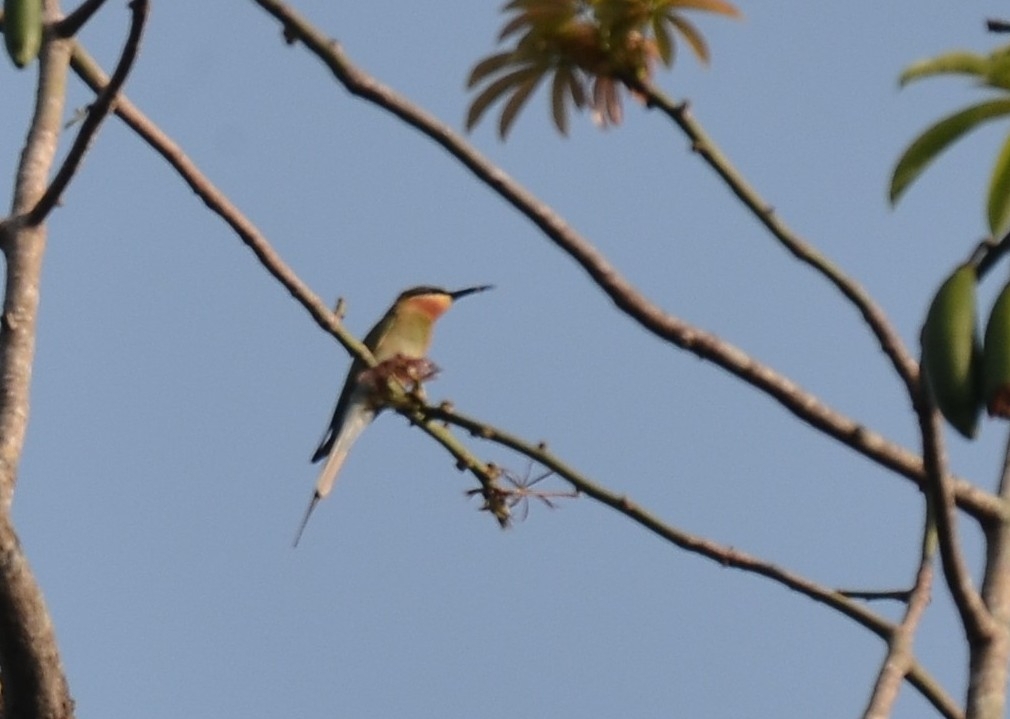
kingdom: Animalia
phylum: Chordata
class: Aves
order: Coraciiformes
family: Meropidae
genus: Merops
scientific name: Merops philippinus
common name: Blue-tailed bee-eater
